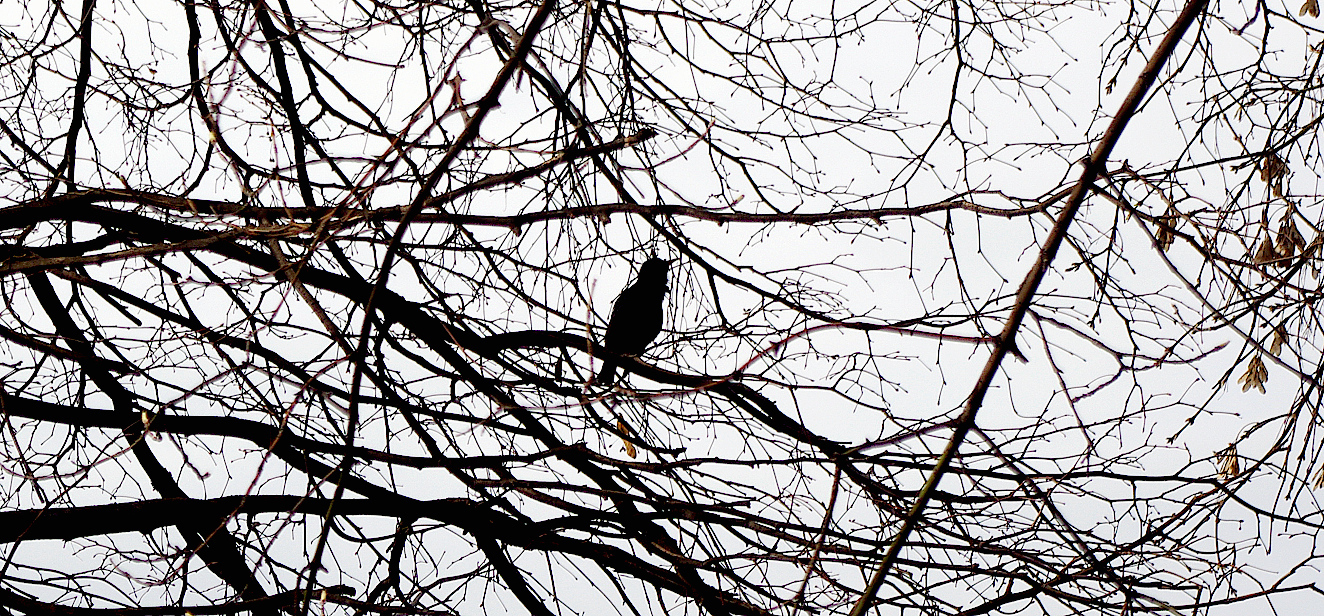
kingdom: Animalia
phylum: Chordata
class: Aves
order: Passeriformes
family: Sturnidae
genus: Sturnus
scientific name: Sturnus vulgaris
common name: Common starling
